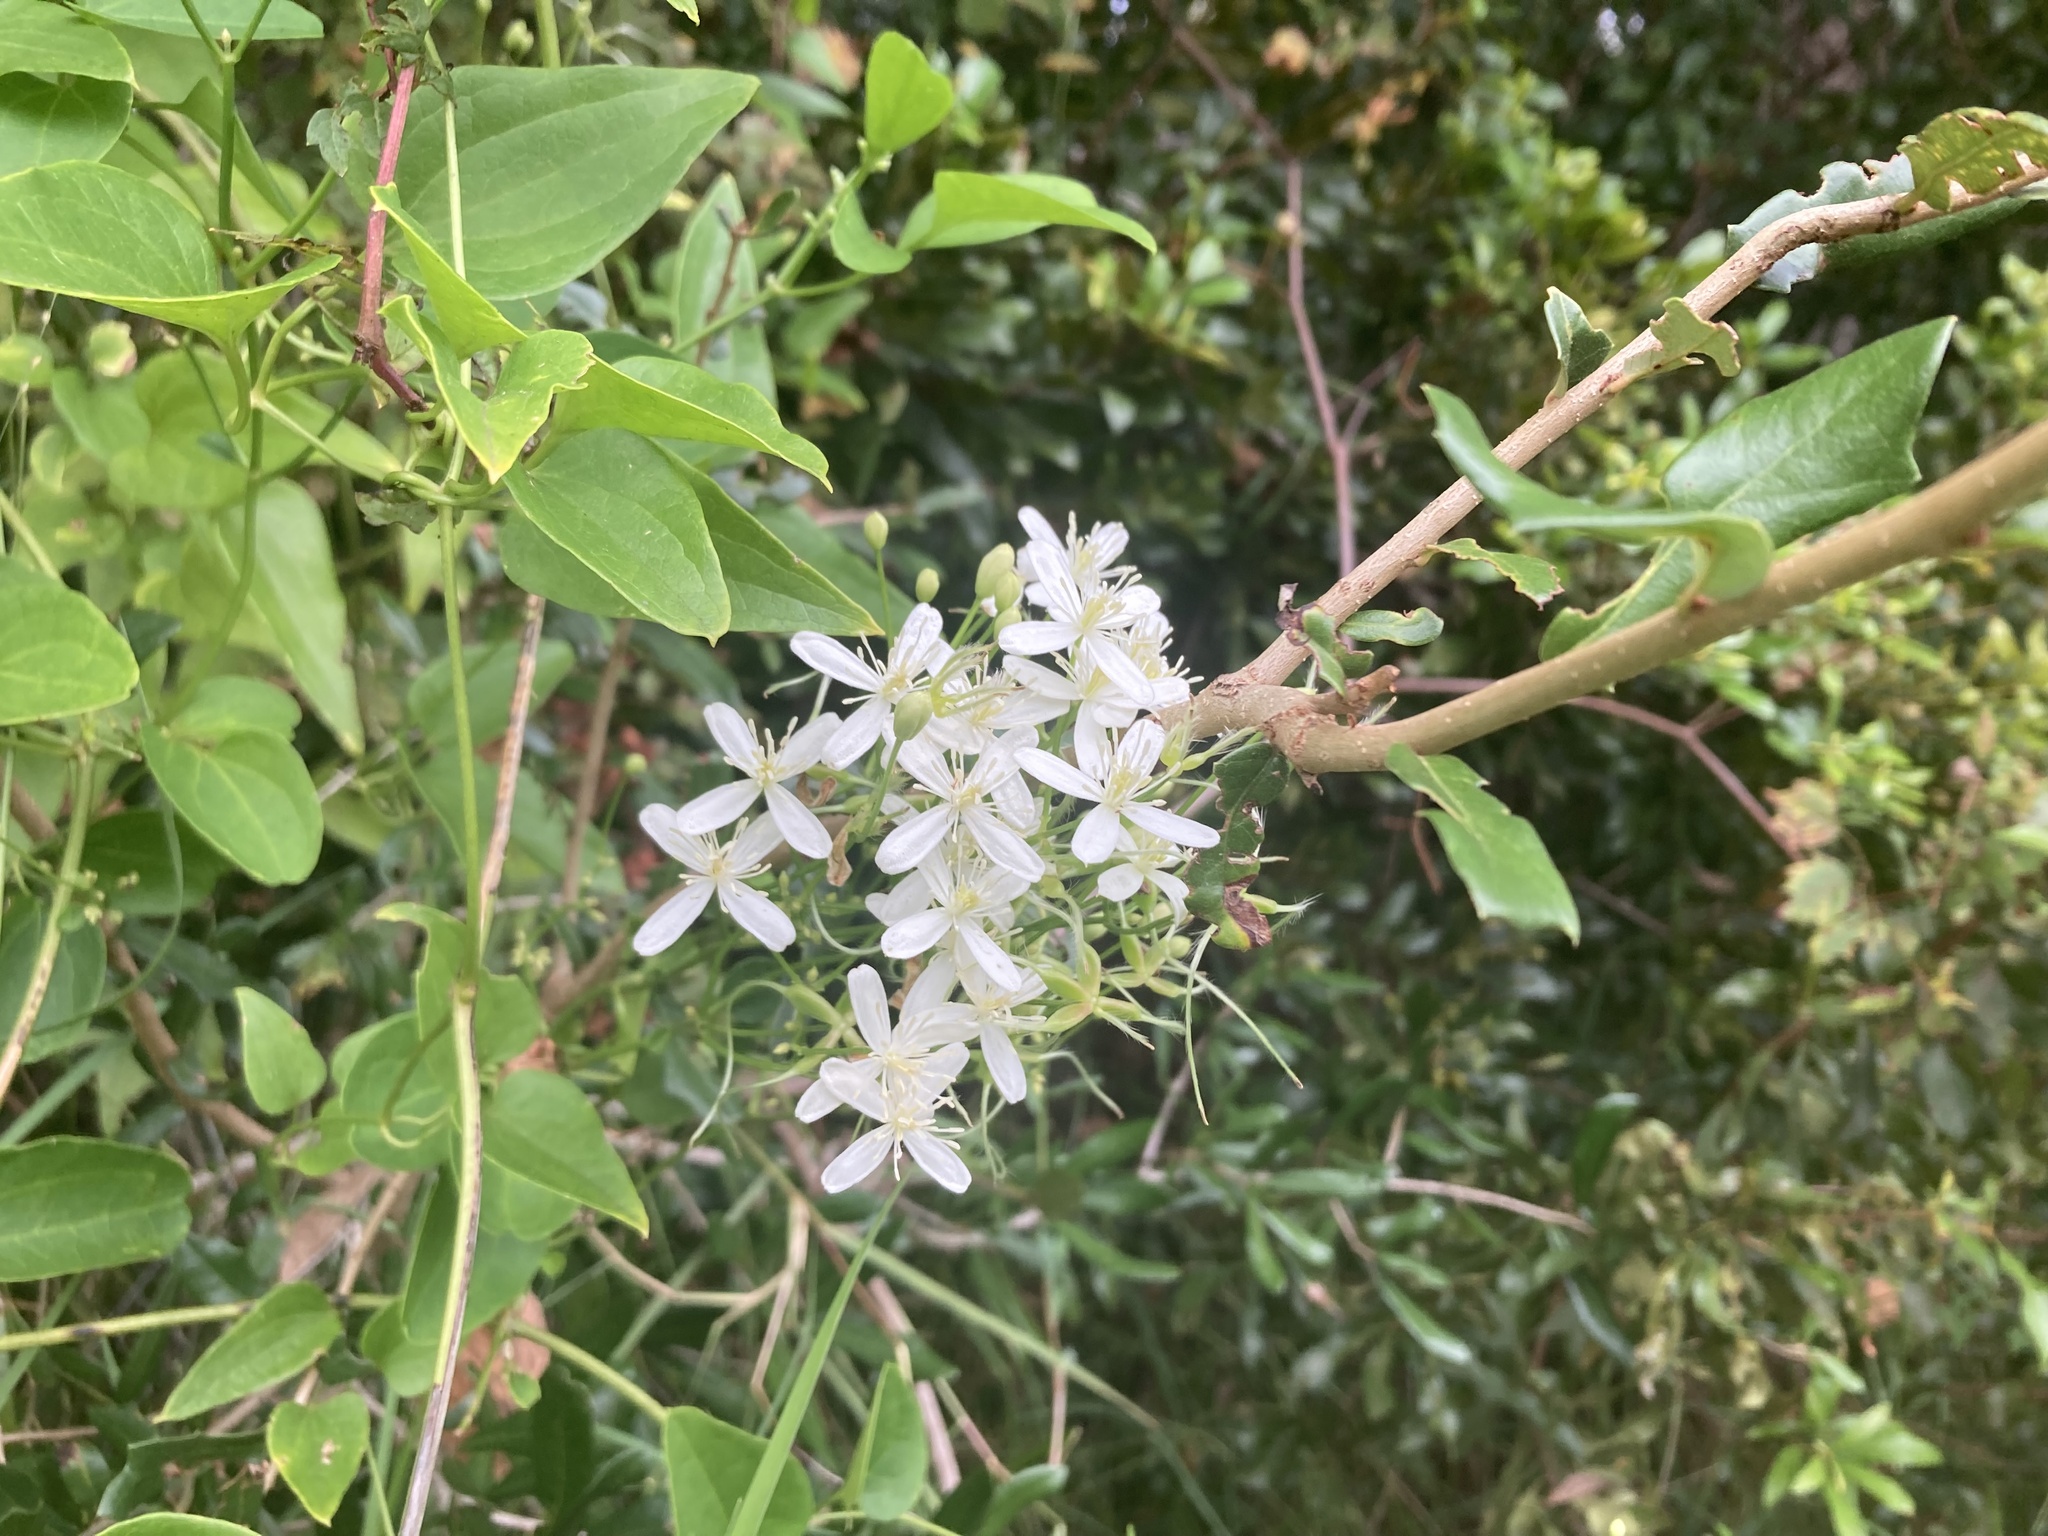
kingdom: Plantae
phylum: Tracheophyta
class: Magnoliopsida
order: Ranunculales
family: Ranunculaceae
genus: Clematis
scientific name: Clematis terniflora
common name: Sweet autumn clematis
